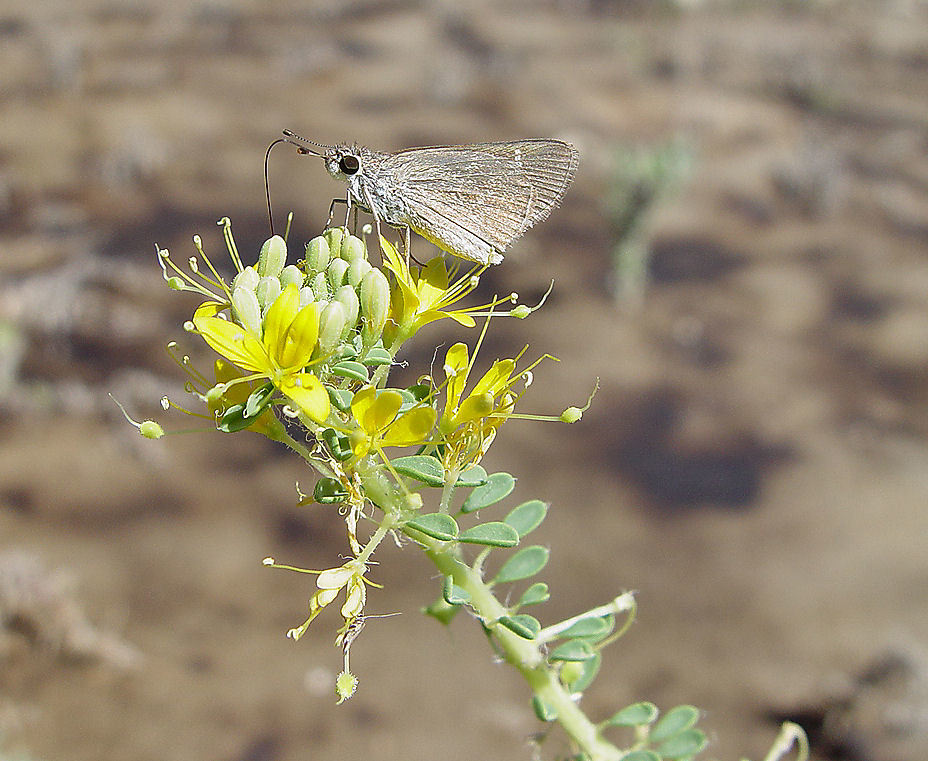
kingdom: Animalia
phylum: Arthropoda
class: Insecta
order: Lepidoptera
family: Hesperiidae
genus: Lerodea
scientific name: Lerodea eufala
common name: Eufala skipper
